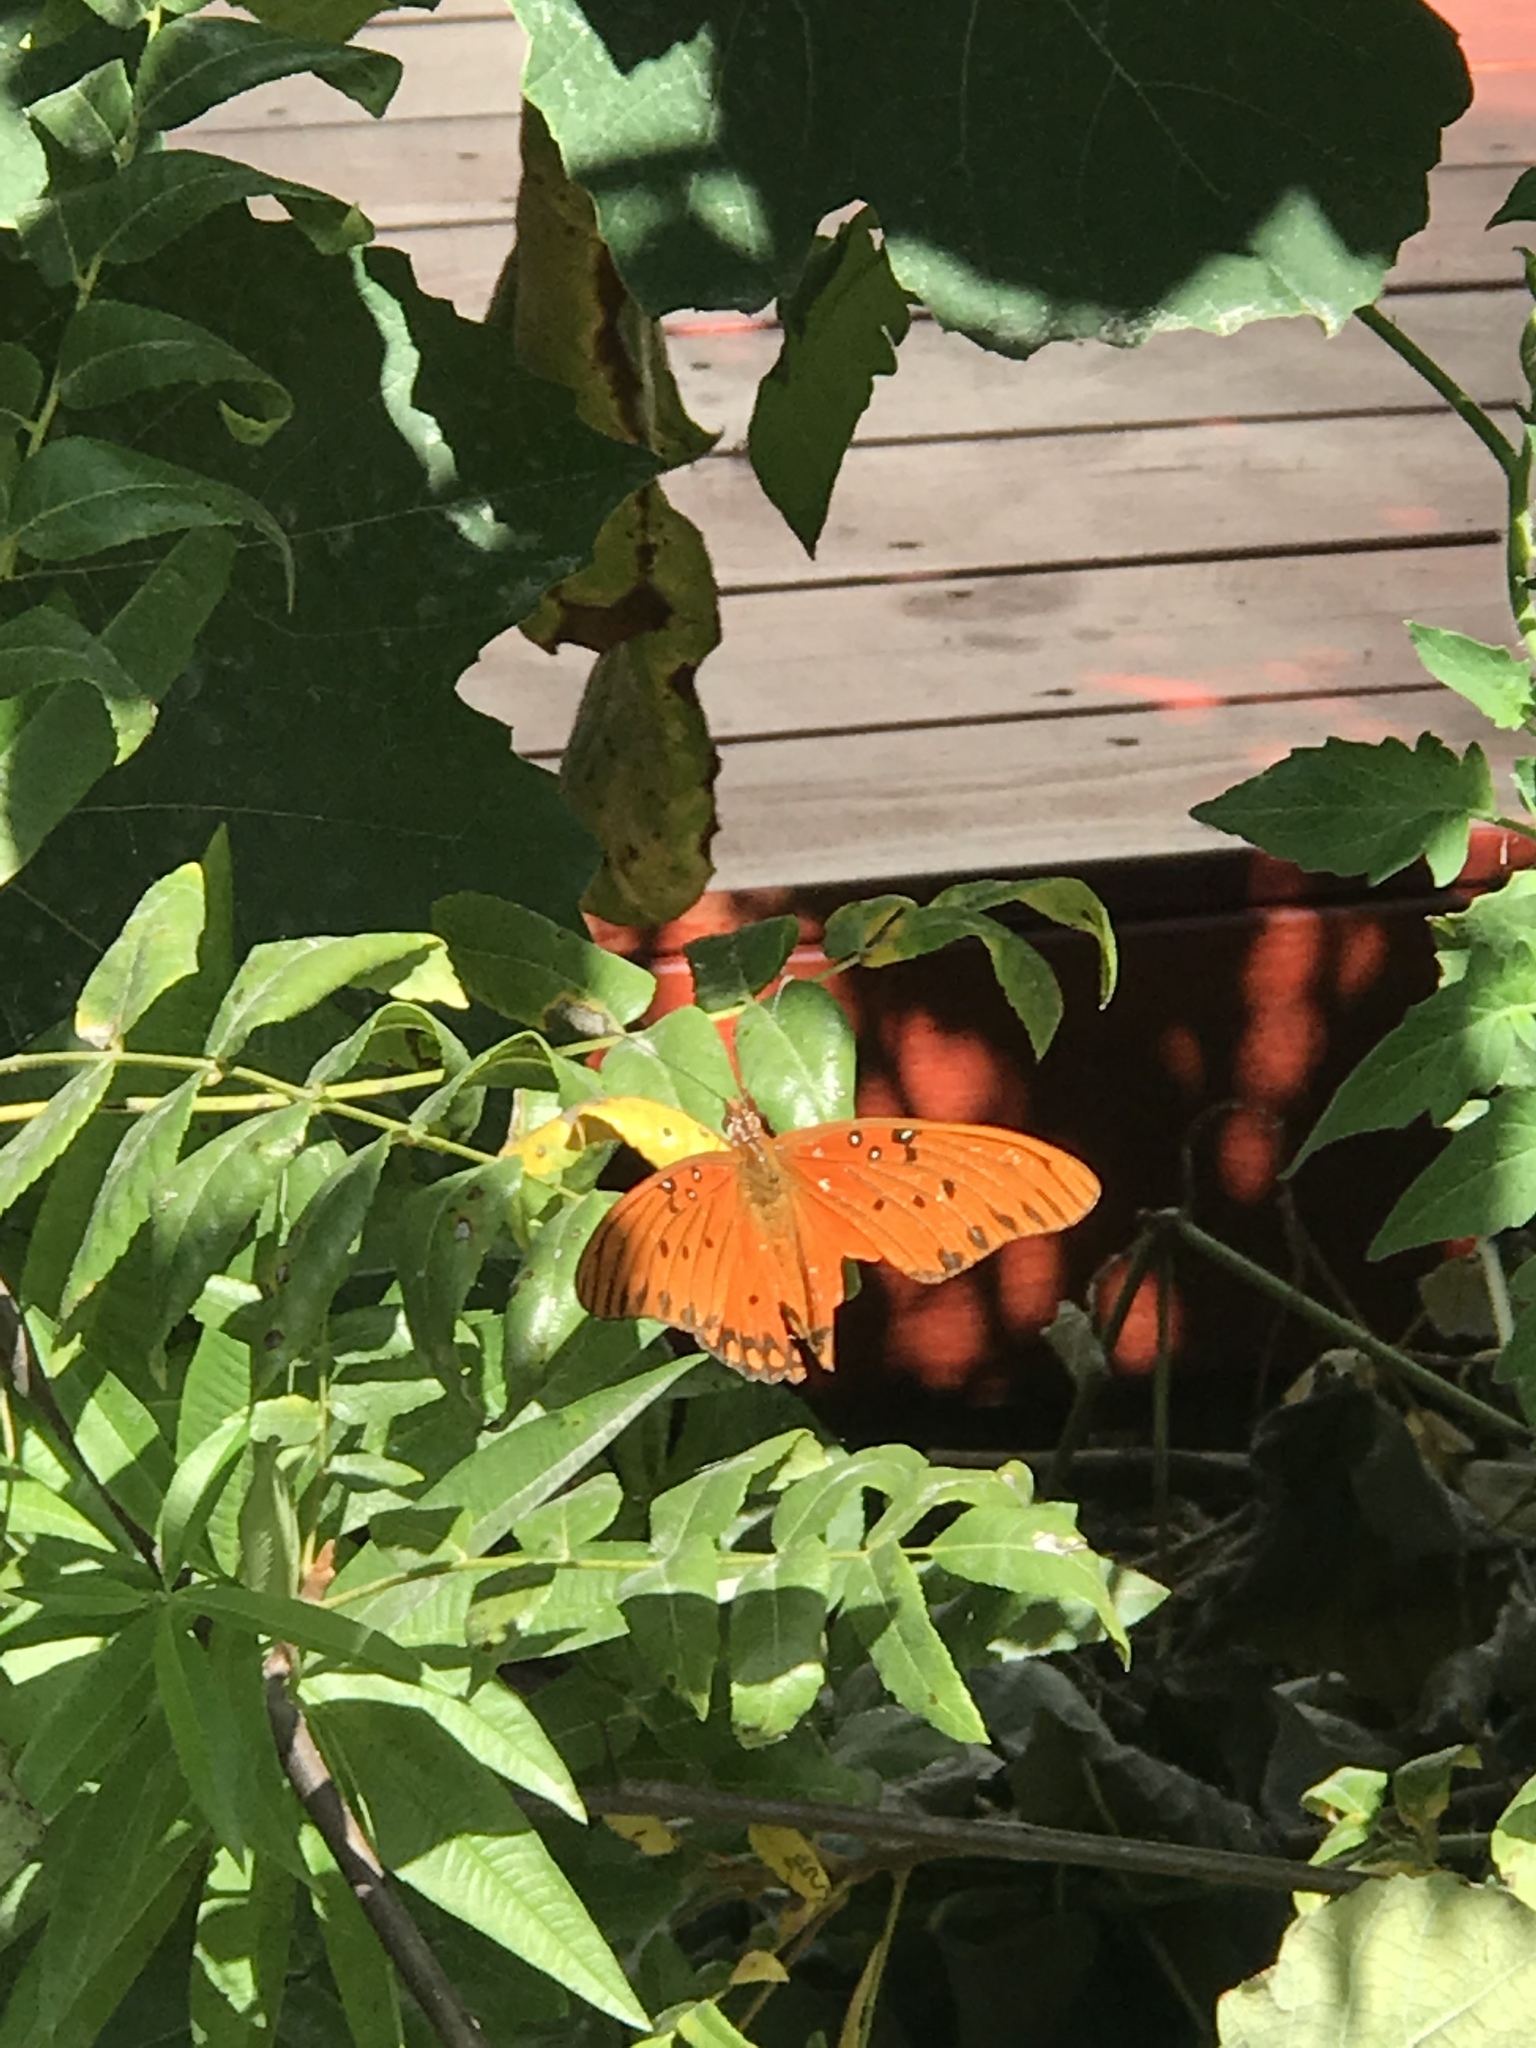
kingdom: Animalia
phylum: Arthropoda
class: Insecta
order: Lepidoptera
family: Nymphalidae
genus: Dione
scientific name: Dione vanillae
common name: Gulf fritillary
